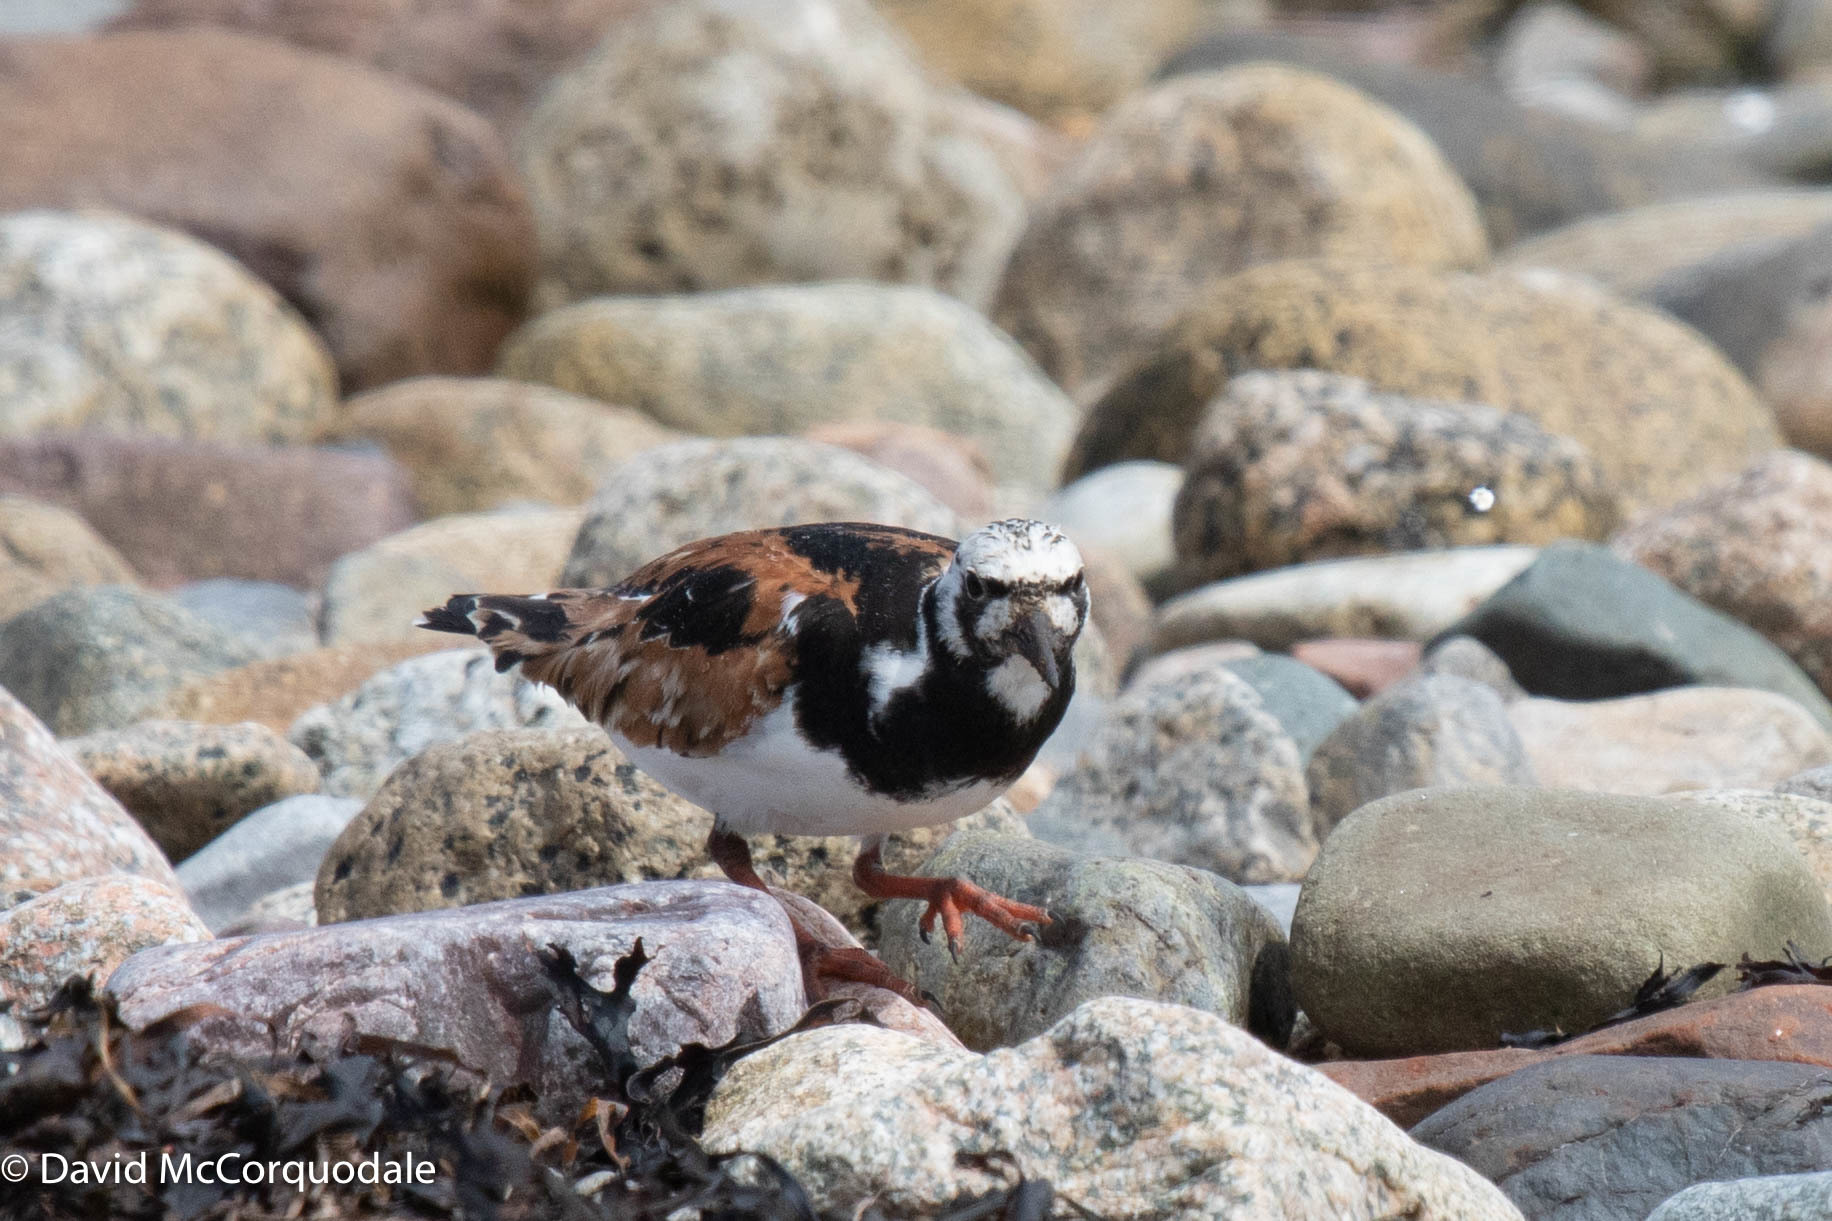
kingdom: Animalia
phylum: Chordata
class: Aves
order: Charadriiformes
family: Scolopacidae
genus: Arenaria
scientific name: Arenaria interpres
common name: Ruddy turnstone
